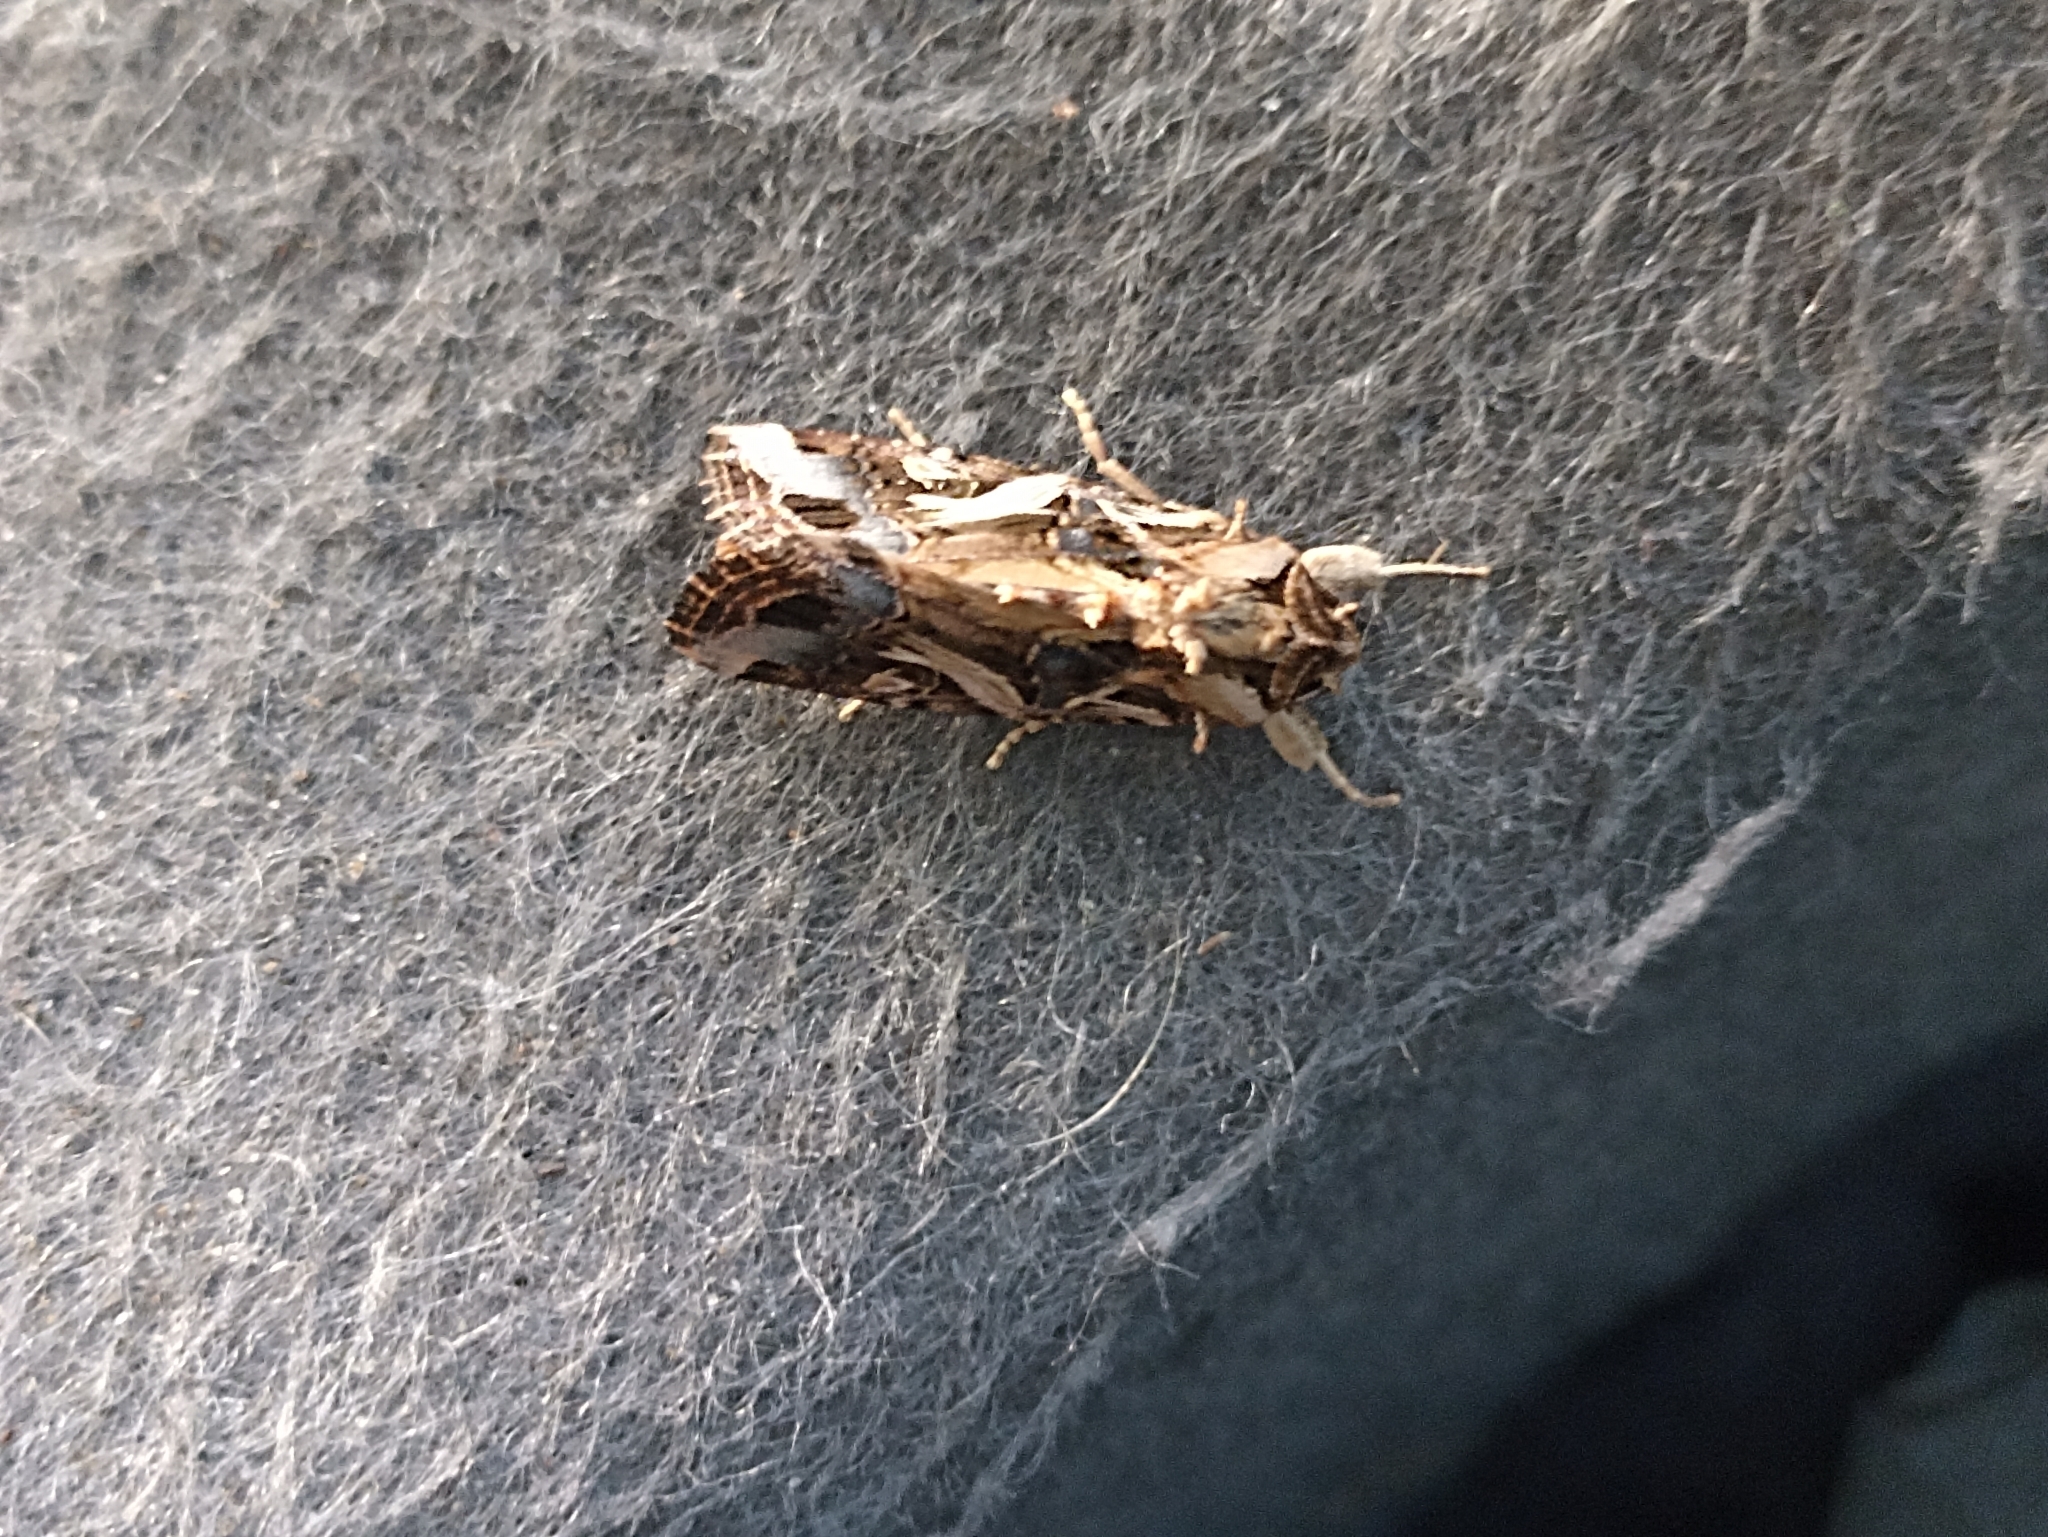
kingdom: Animalia
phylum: Arthropoda
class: Insecta
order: Lepidoptera
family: Noctuidae
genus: Spodoptera
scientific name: Spodoptera litura
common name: Asian cotton leafworm
